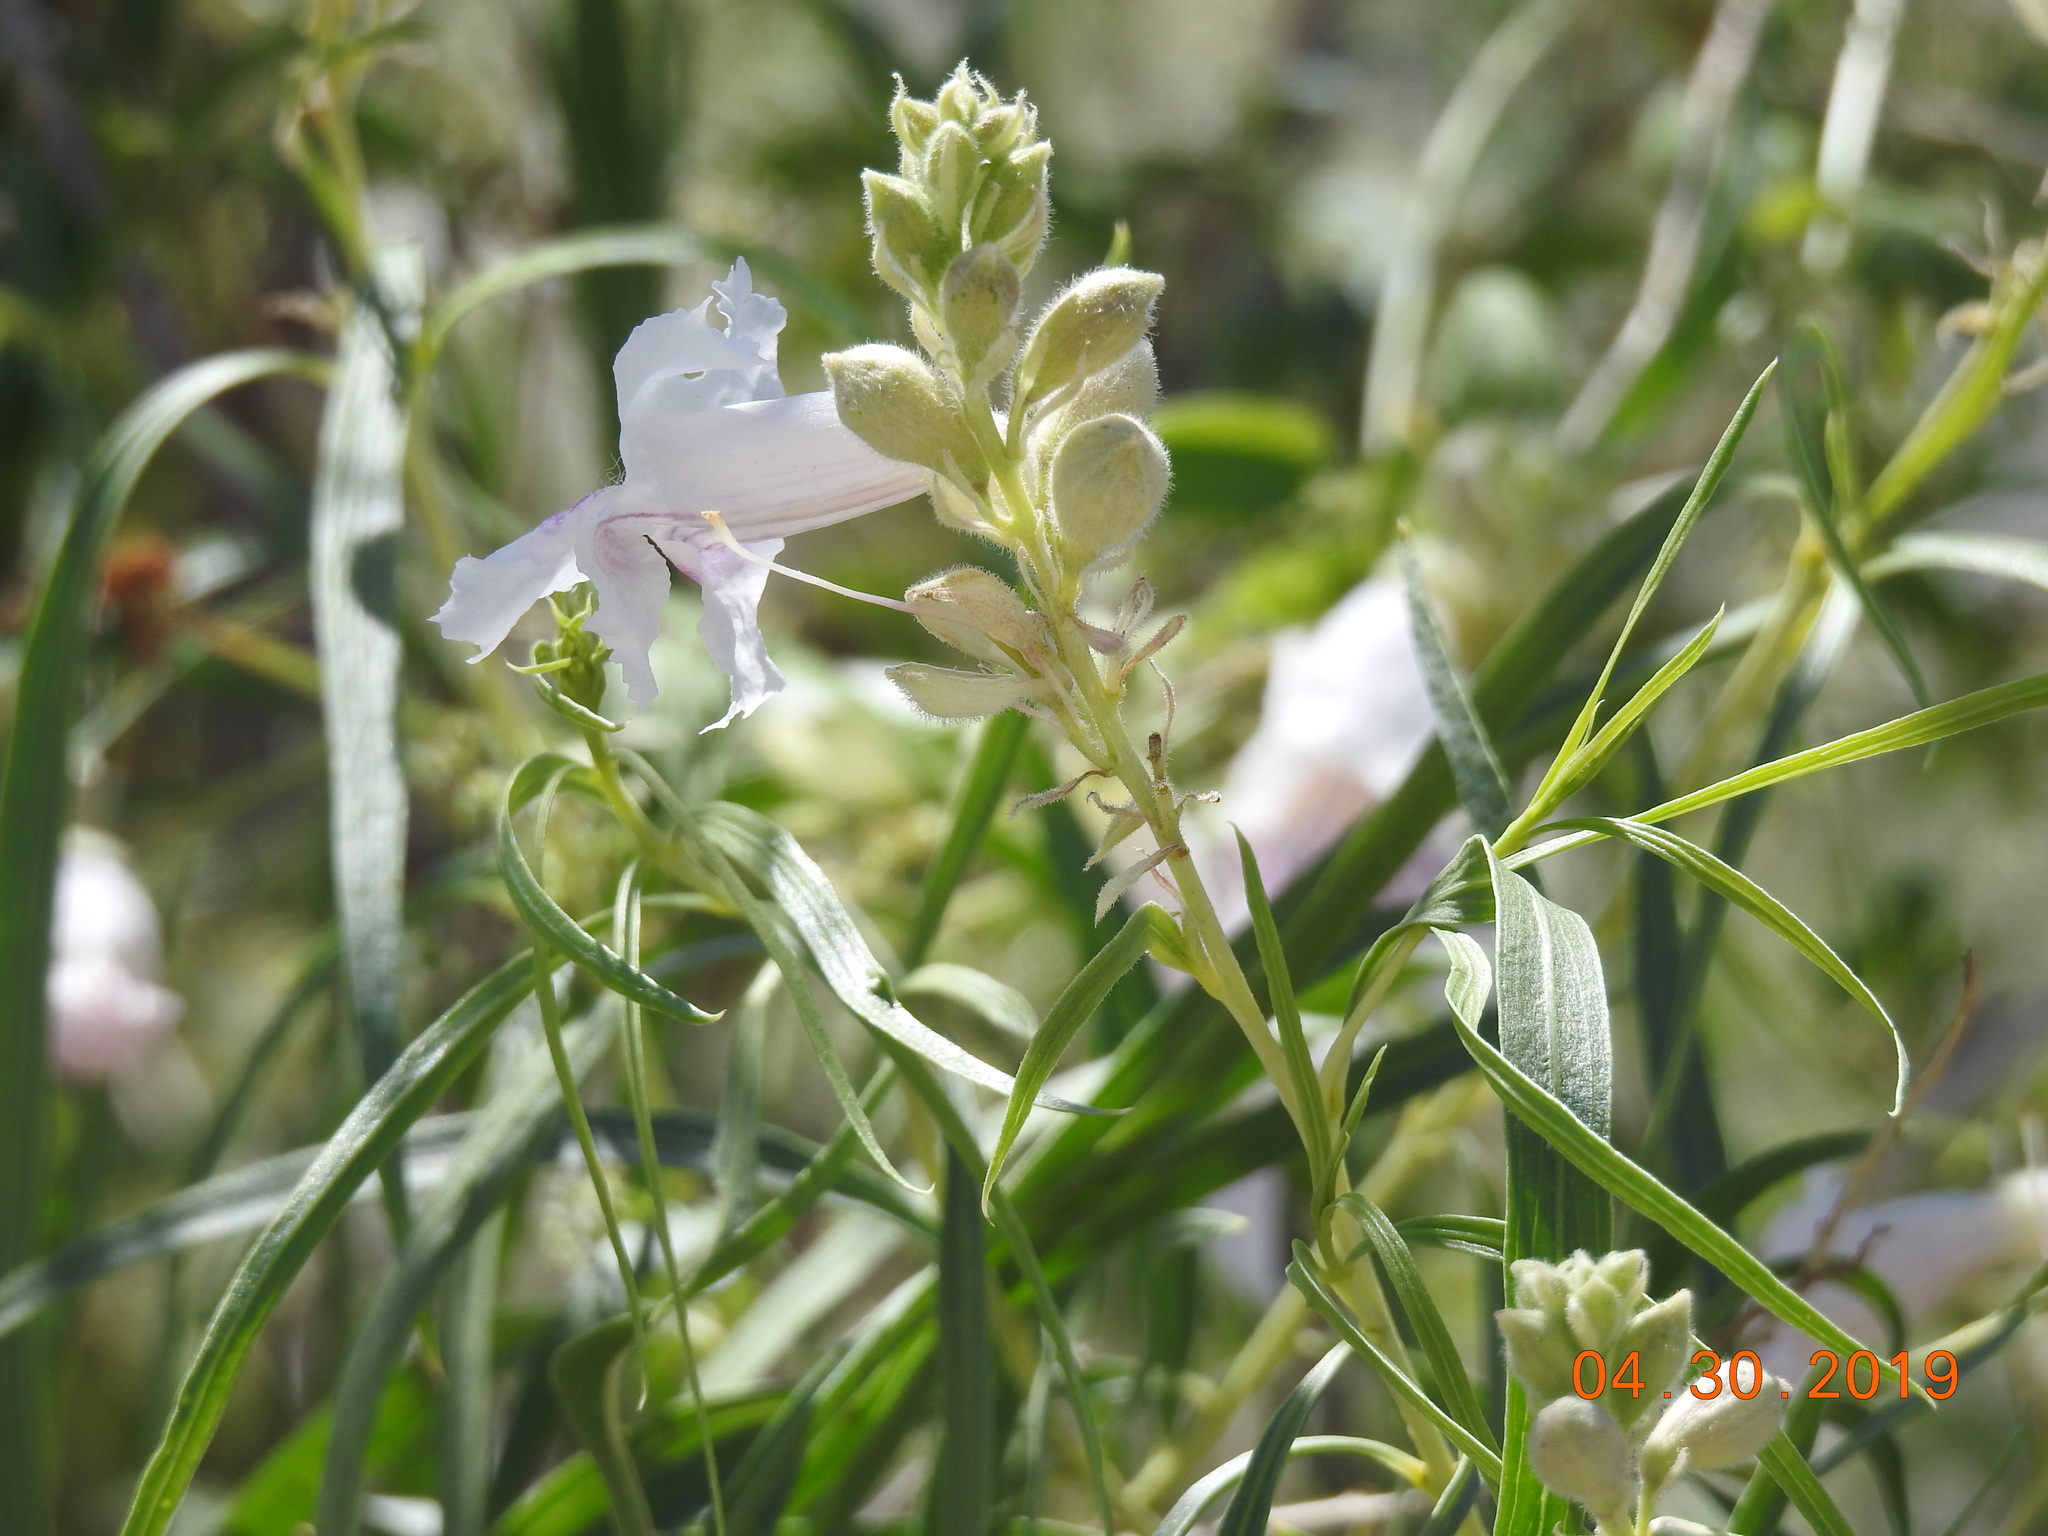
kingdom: Plantae
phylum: Tracheophyta
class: Magnoliopsida
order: Lamiales
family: Bignoniaceae
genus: Chilopsis
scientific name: Chilopsis linearis
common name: Desert-willow
